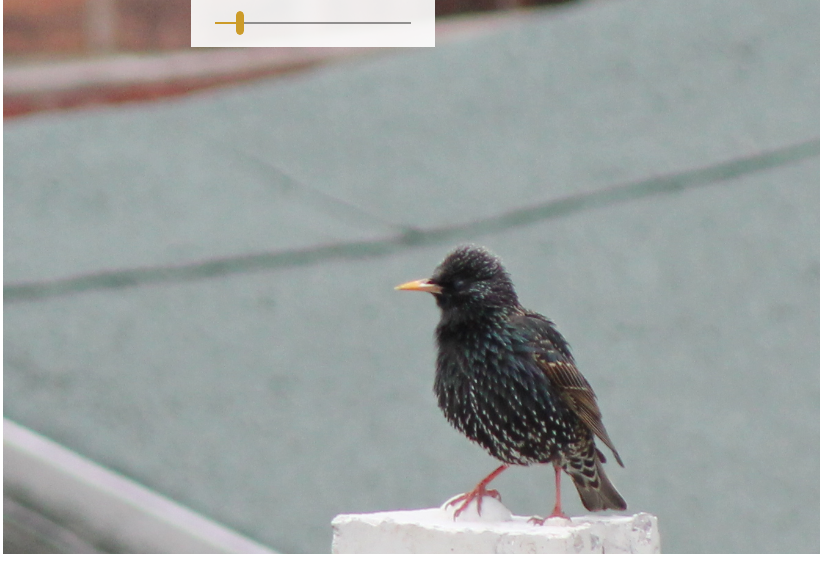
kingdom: Animalia
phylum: Chordata
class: Aves
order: Passeriformes
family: Sturnidae
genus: Sturnus
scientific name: Sturnus vulgaris
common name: Common starling
